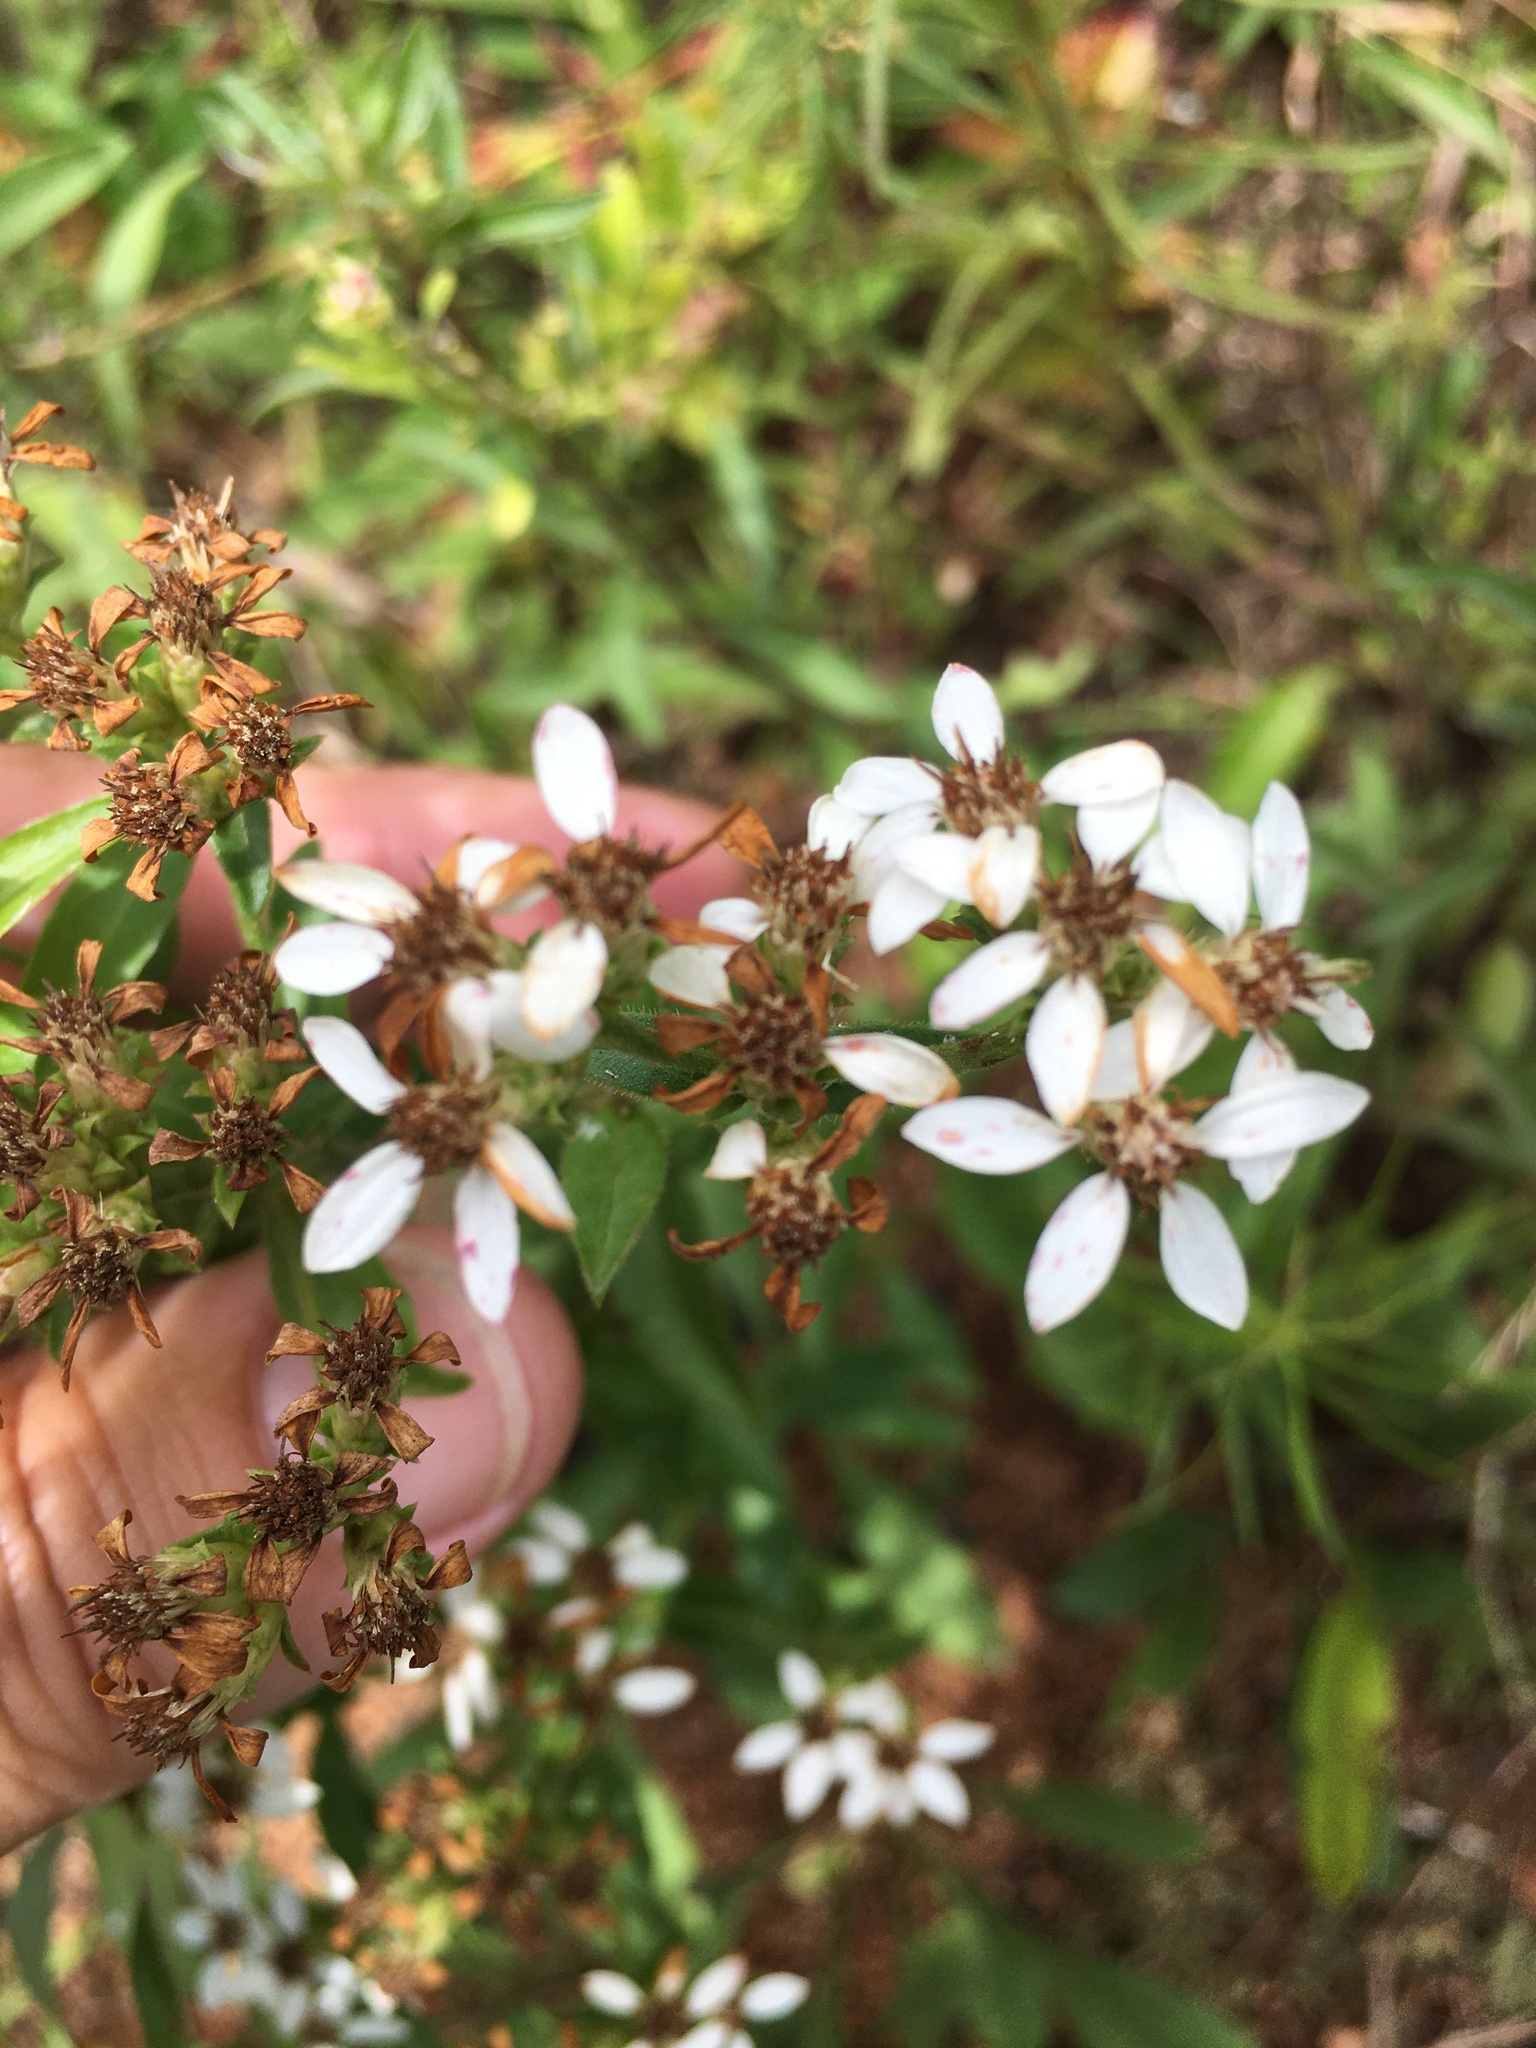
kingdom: Plantae
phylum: Tracheophyta
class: Magnoliopsida
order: Asterales
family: Asteraceae
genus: Sericocarpus
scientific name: Sericocarpus asteroides
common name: Toothed white-top aster
